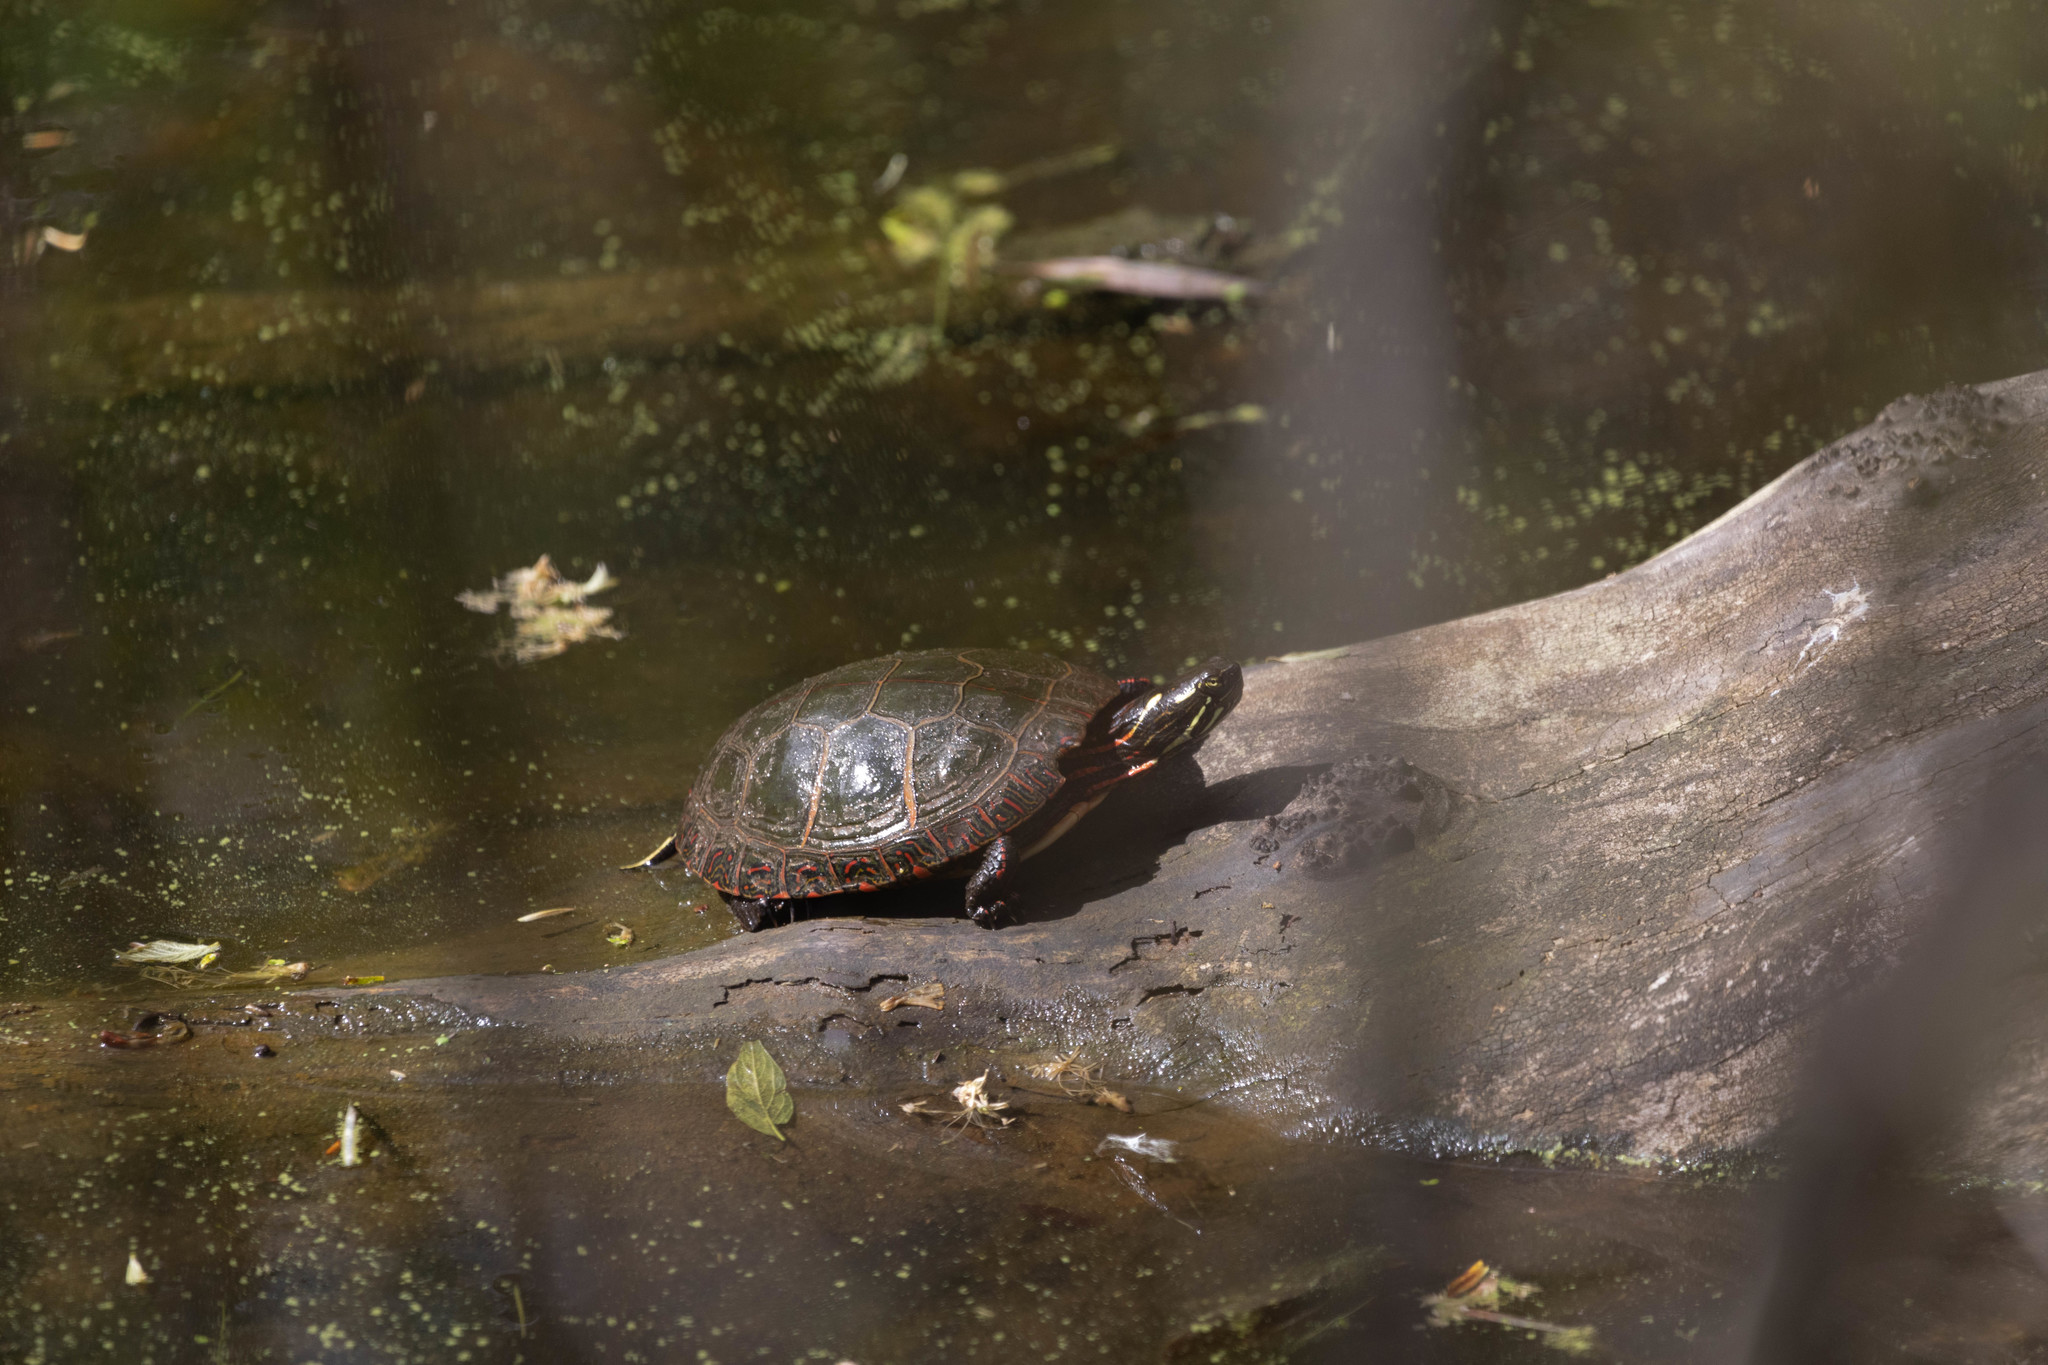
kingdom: Animalia
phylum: Chordata
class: Testudines
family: Emydidae
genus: Chrysemys
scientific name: Chrysemys picta
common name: Painted turtle
